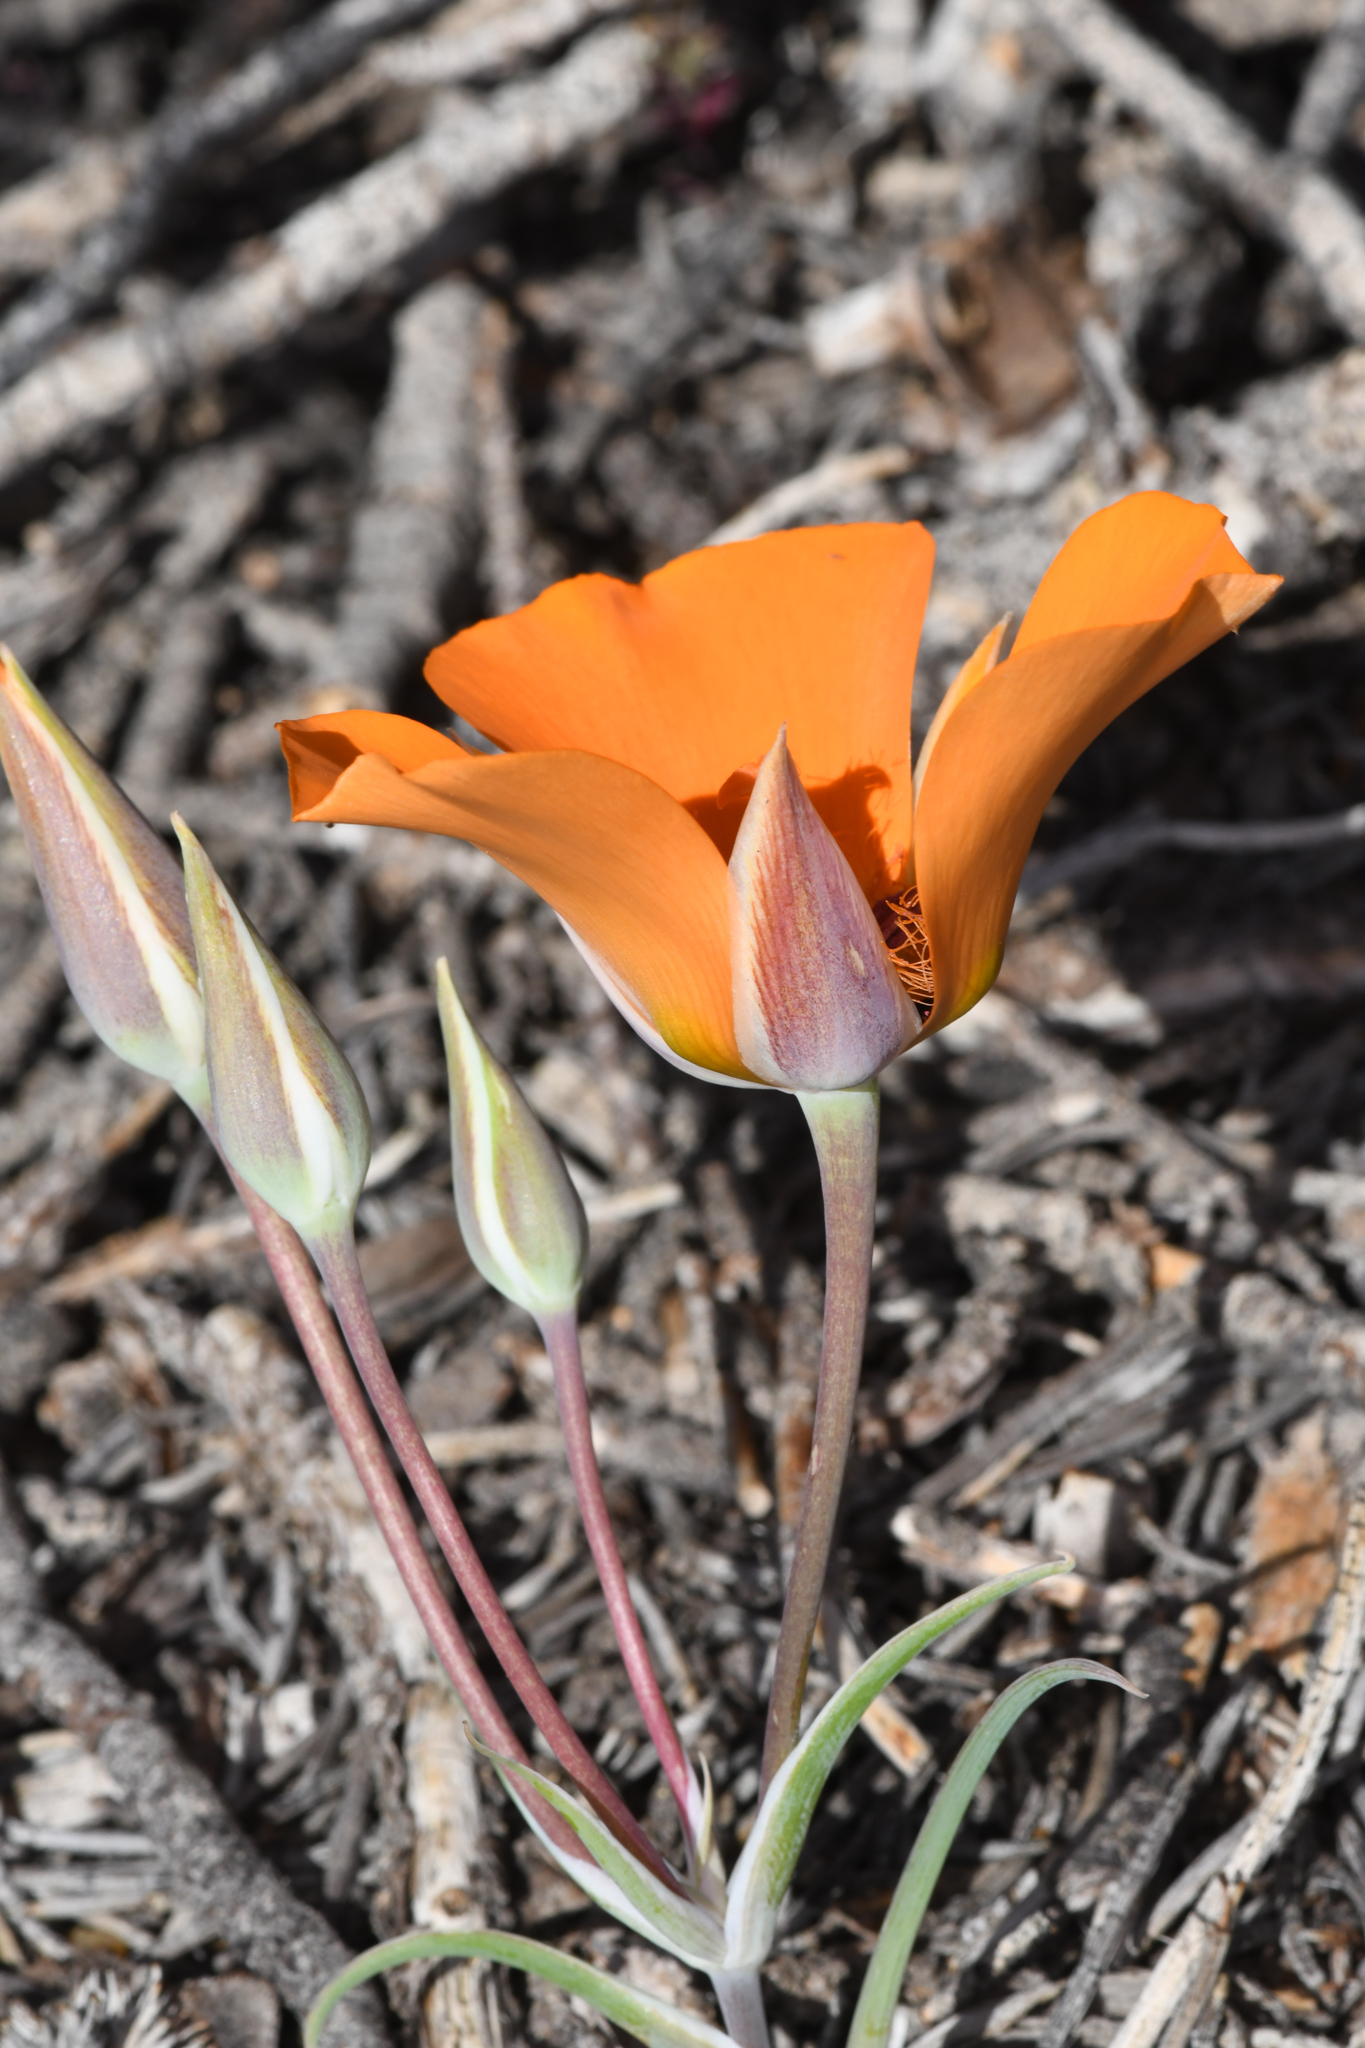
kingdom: Plantae
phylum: Tracheophyta
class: Liliopsida
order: Liliales
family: Liliaceae
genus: Calochortus
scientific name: Calochortus kennedyi
